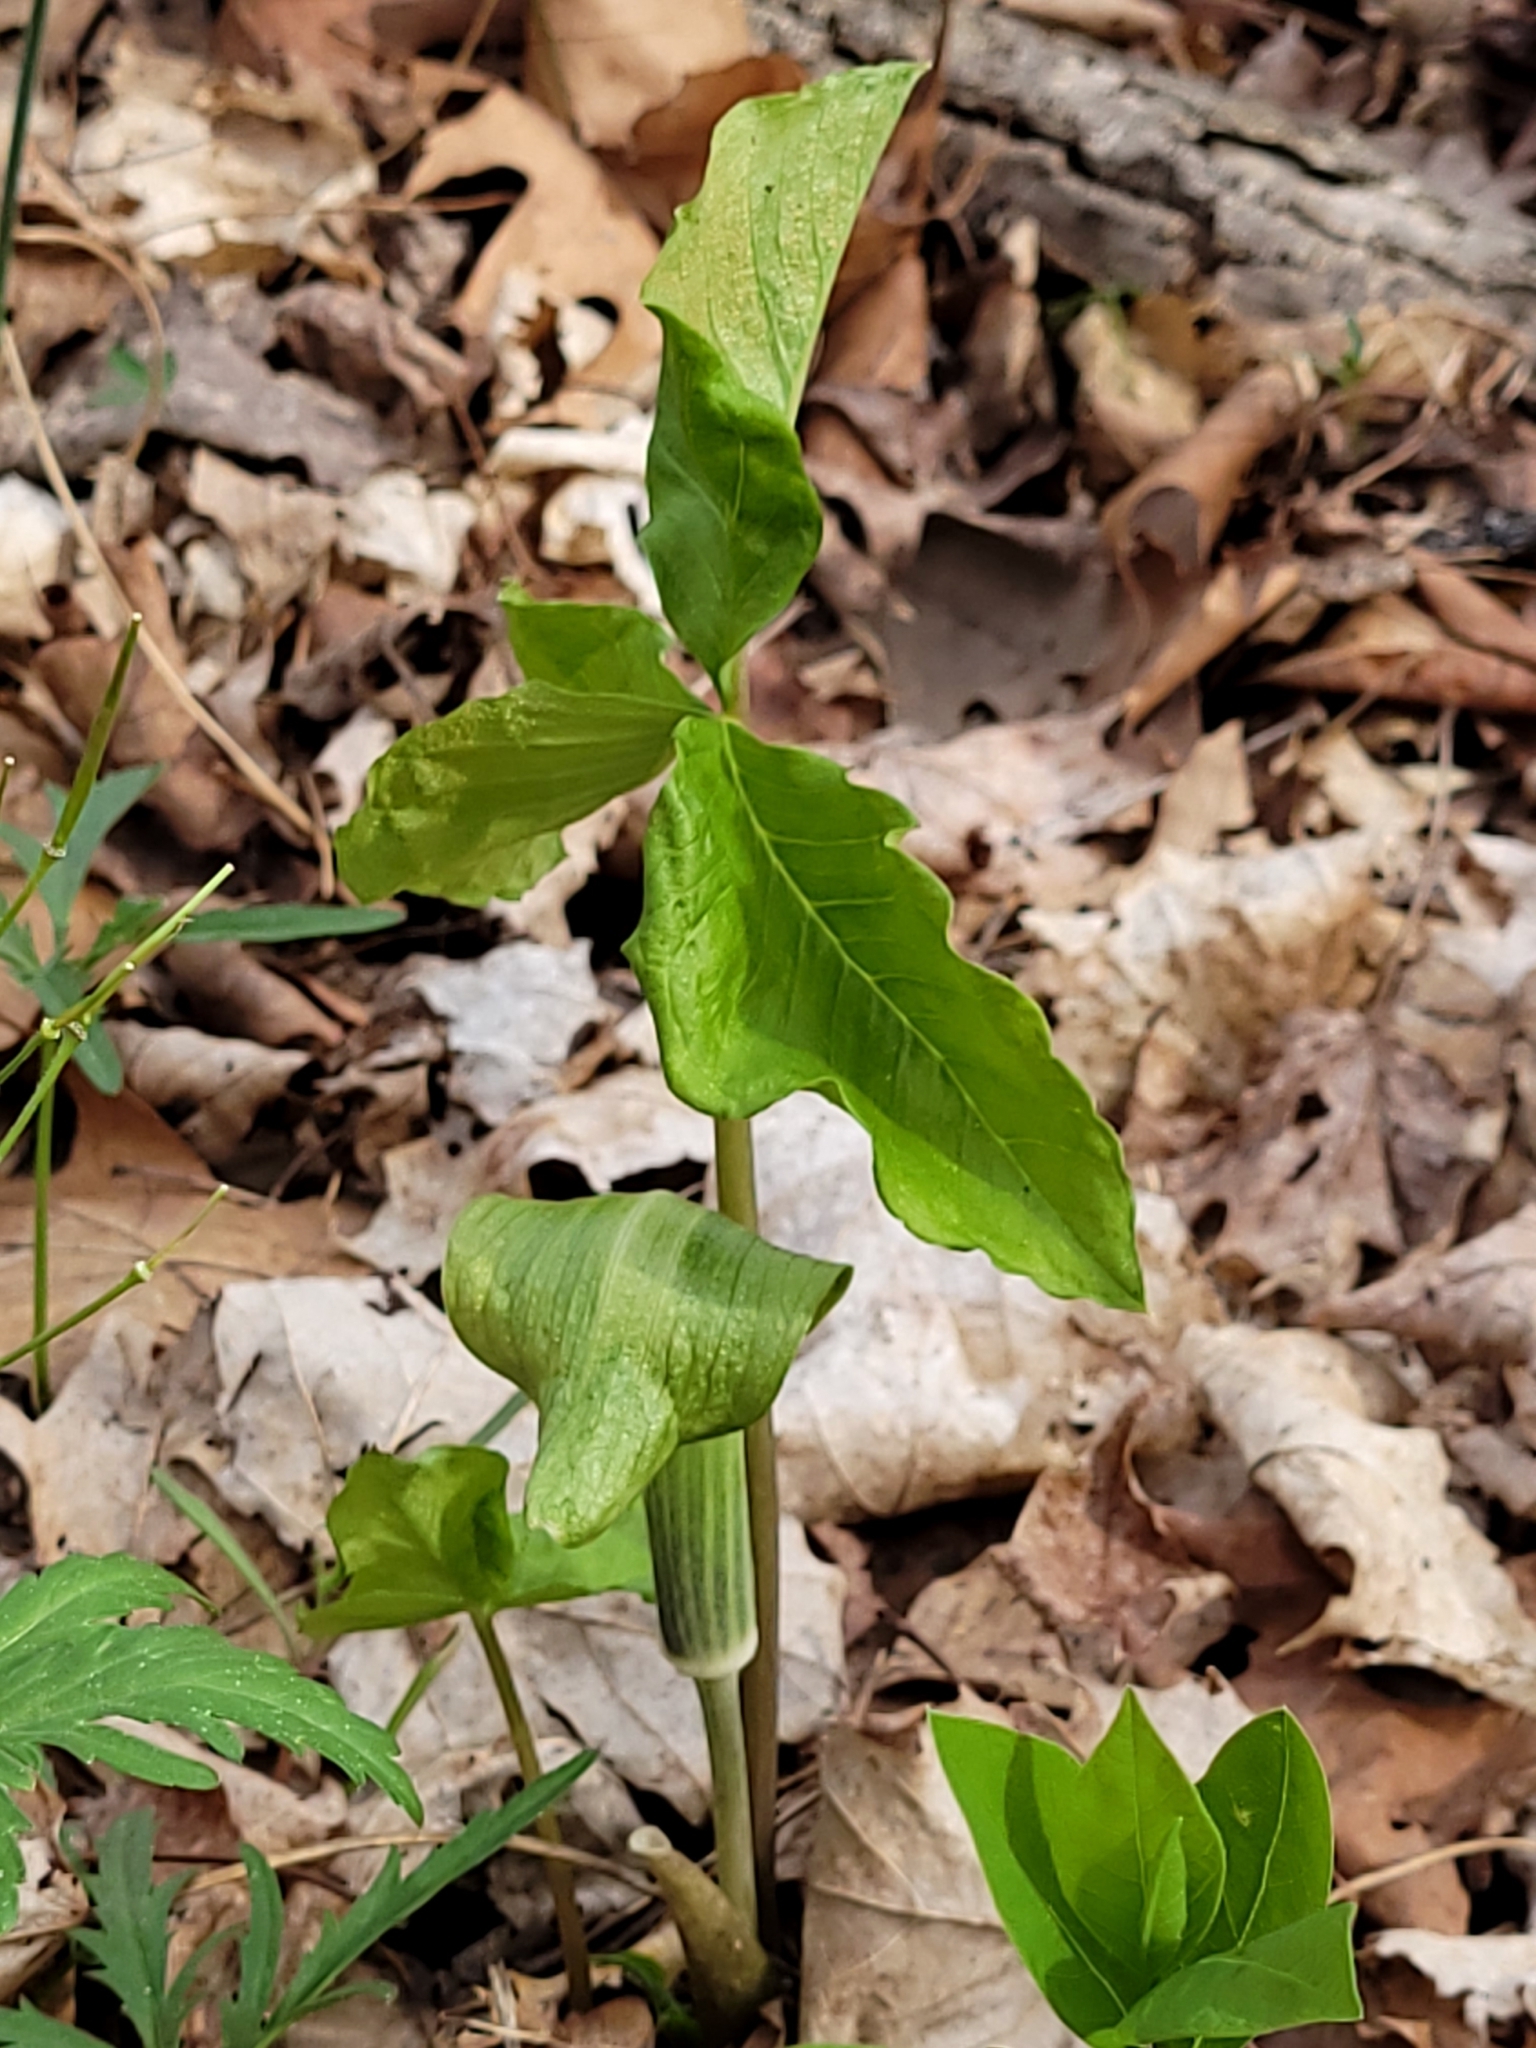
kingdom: Plantae
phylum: Tracheophyta
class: Liliopsida
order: Alismatales
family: Araceae
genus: Arisaema
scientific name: Arisaema triphyllum
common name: Jack-in-the-pulpit
